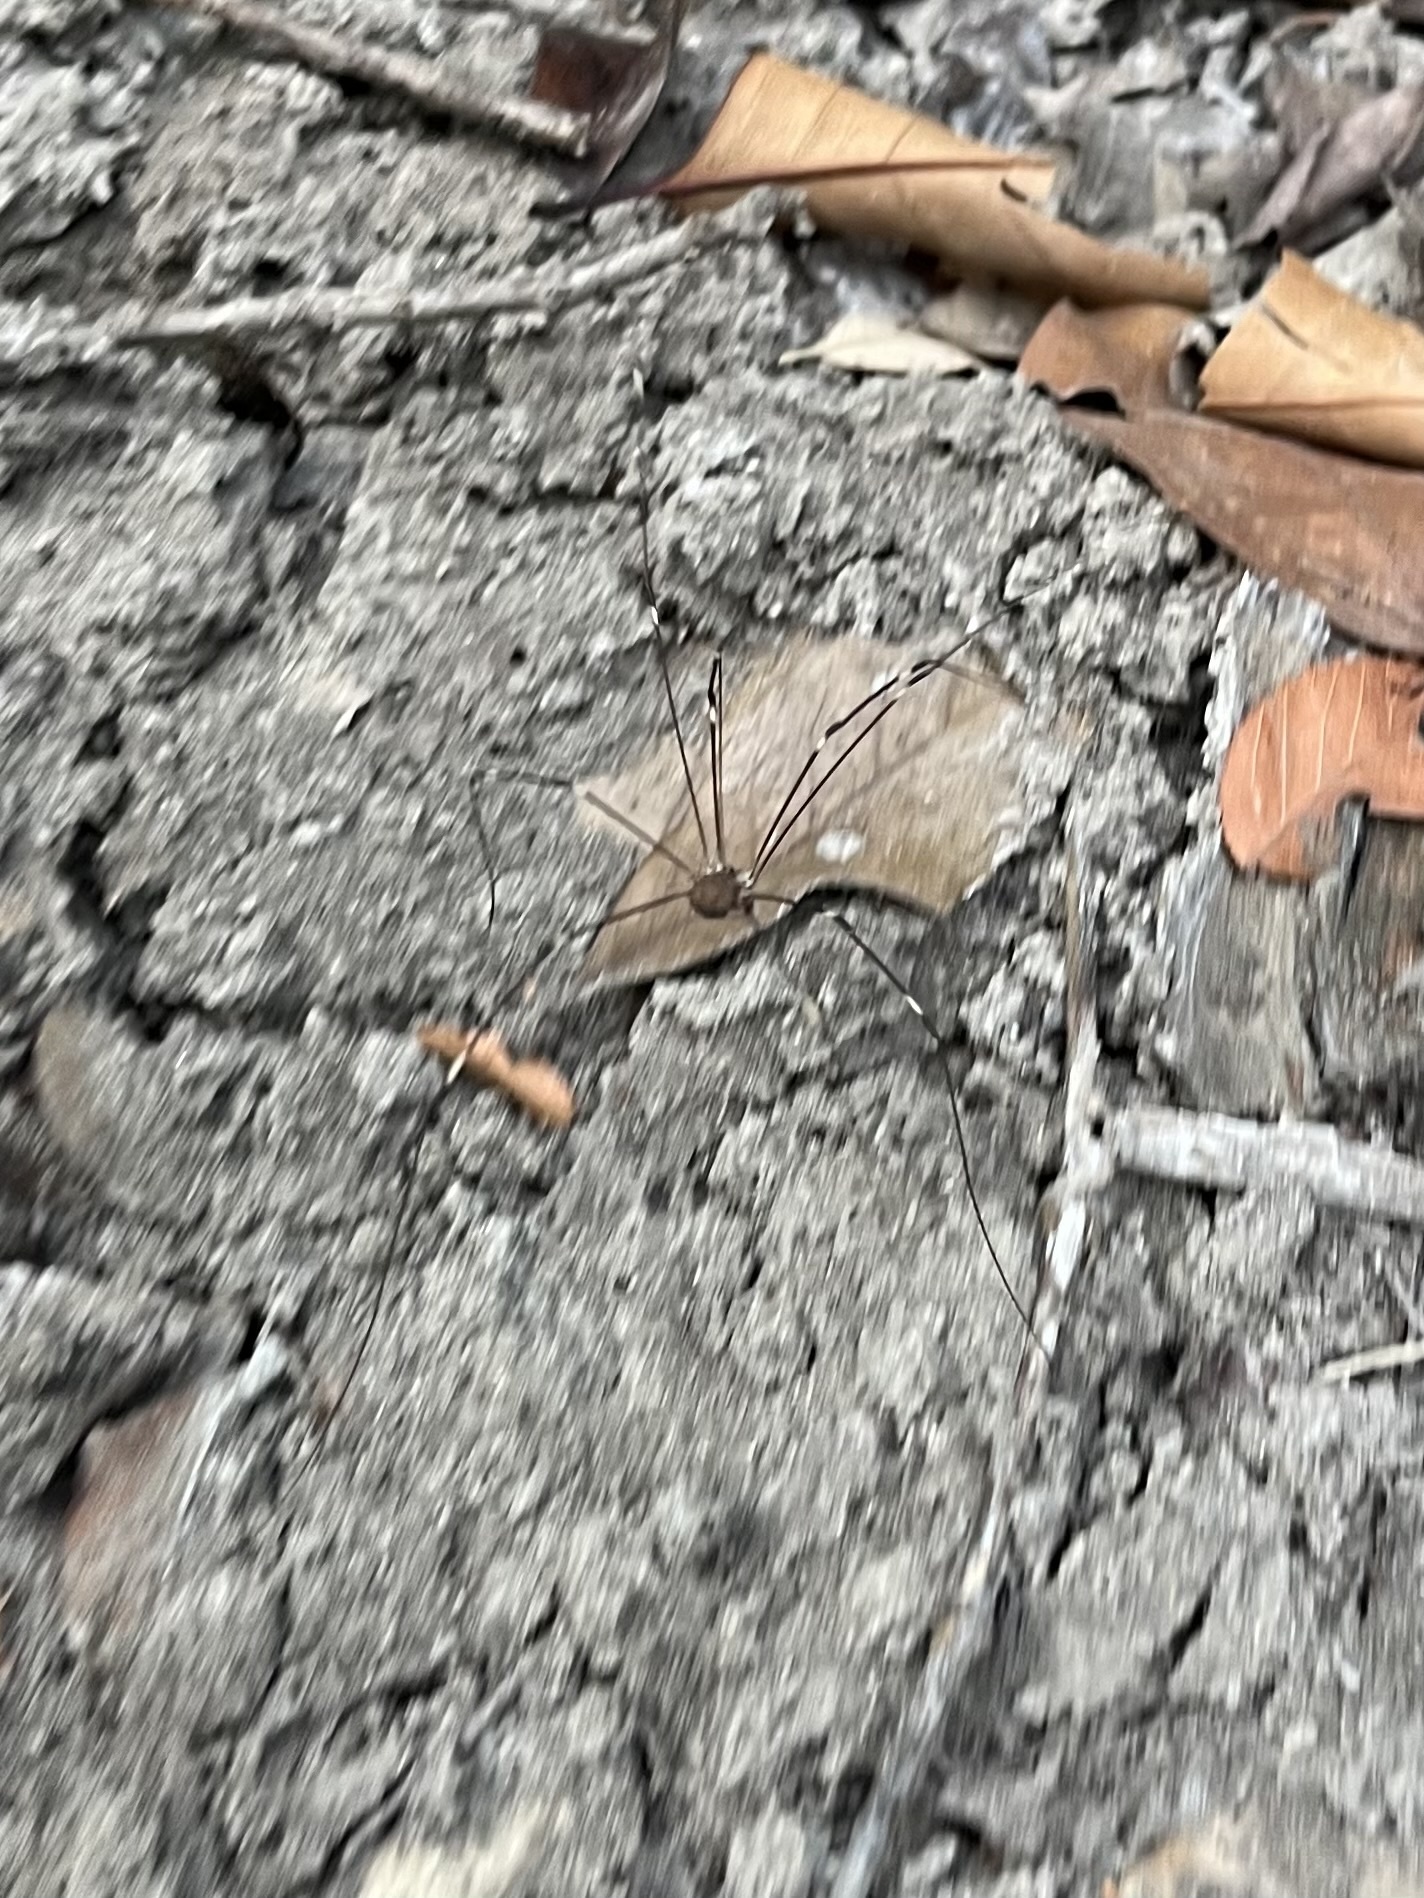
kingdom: Animalia
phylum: Arthropoda
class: Arachnida
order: Opiliones
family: Sclerosomatidae
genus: Leiobunum
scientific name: Leiobunum townsendi
